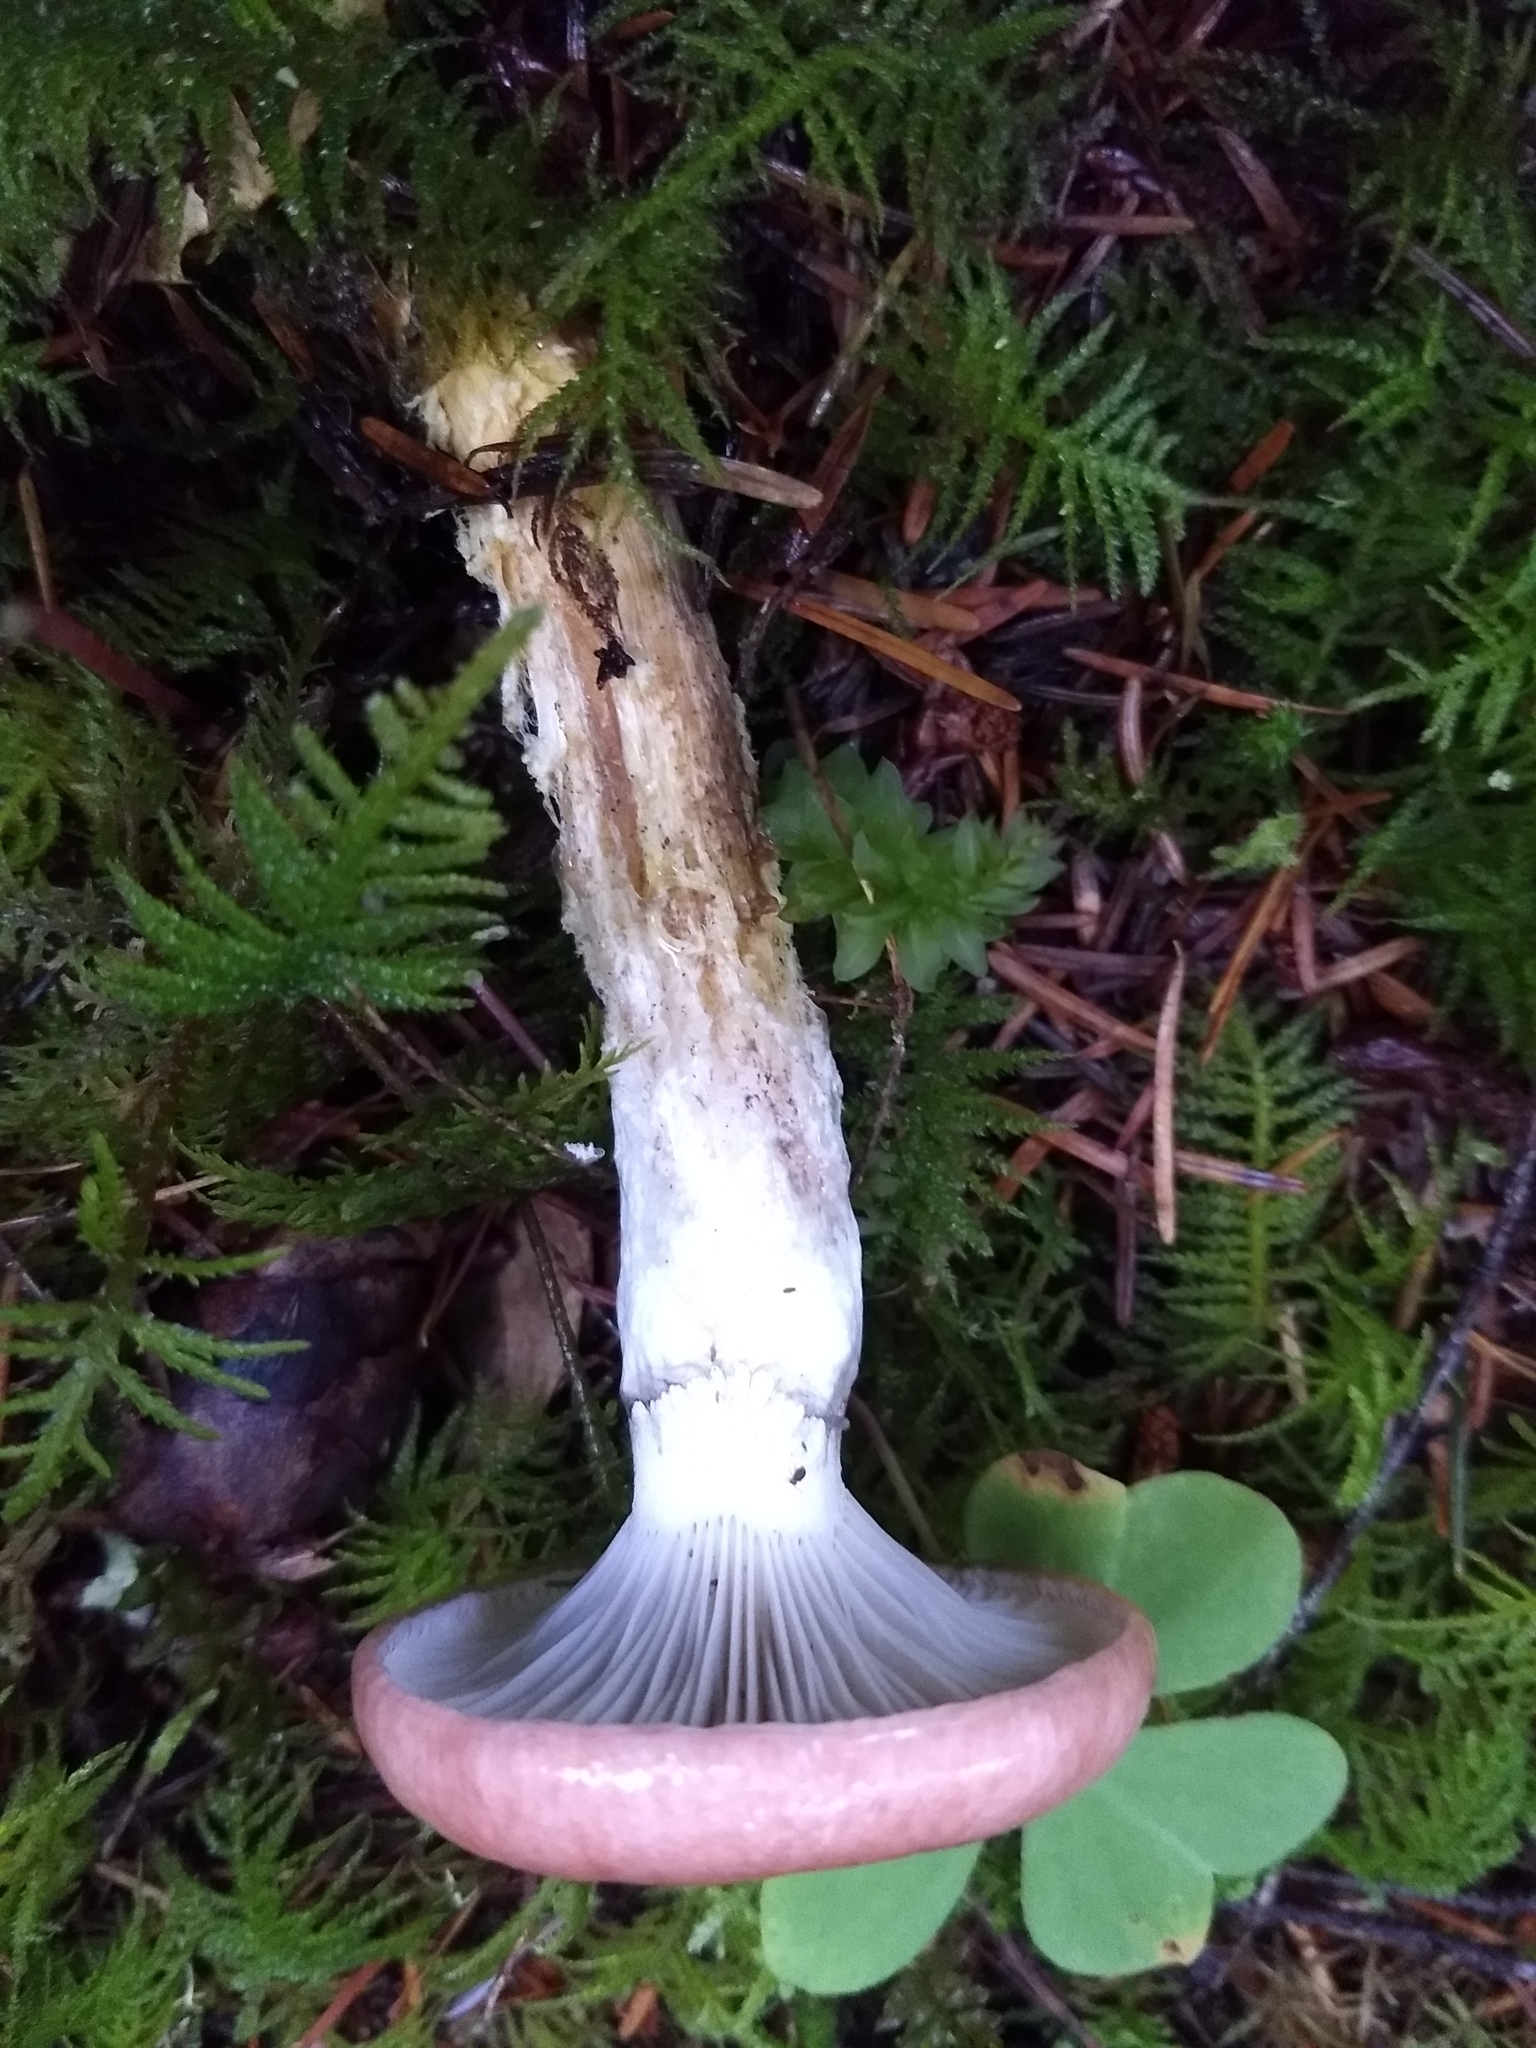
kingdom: Fungi
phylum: Basidiomycota
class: Agaricomycetes
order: Boletales
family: Gomphidiaceae
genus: Gomphidius
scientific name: Gomphidius subroseus
